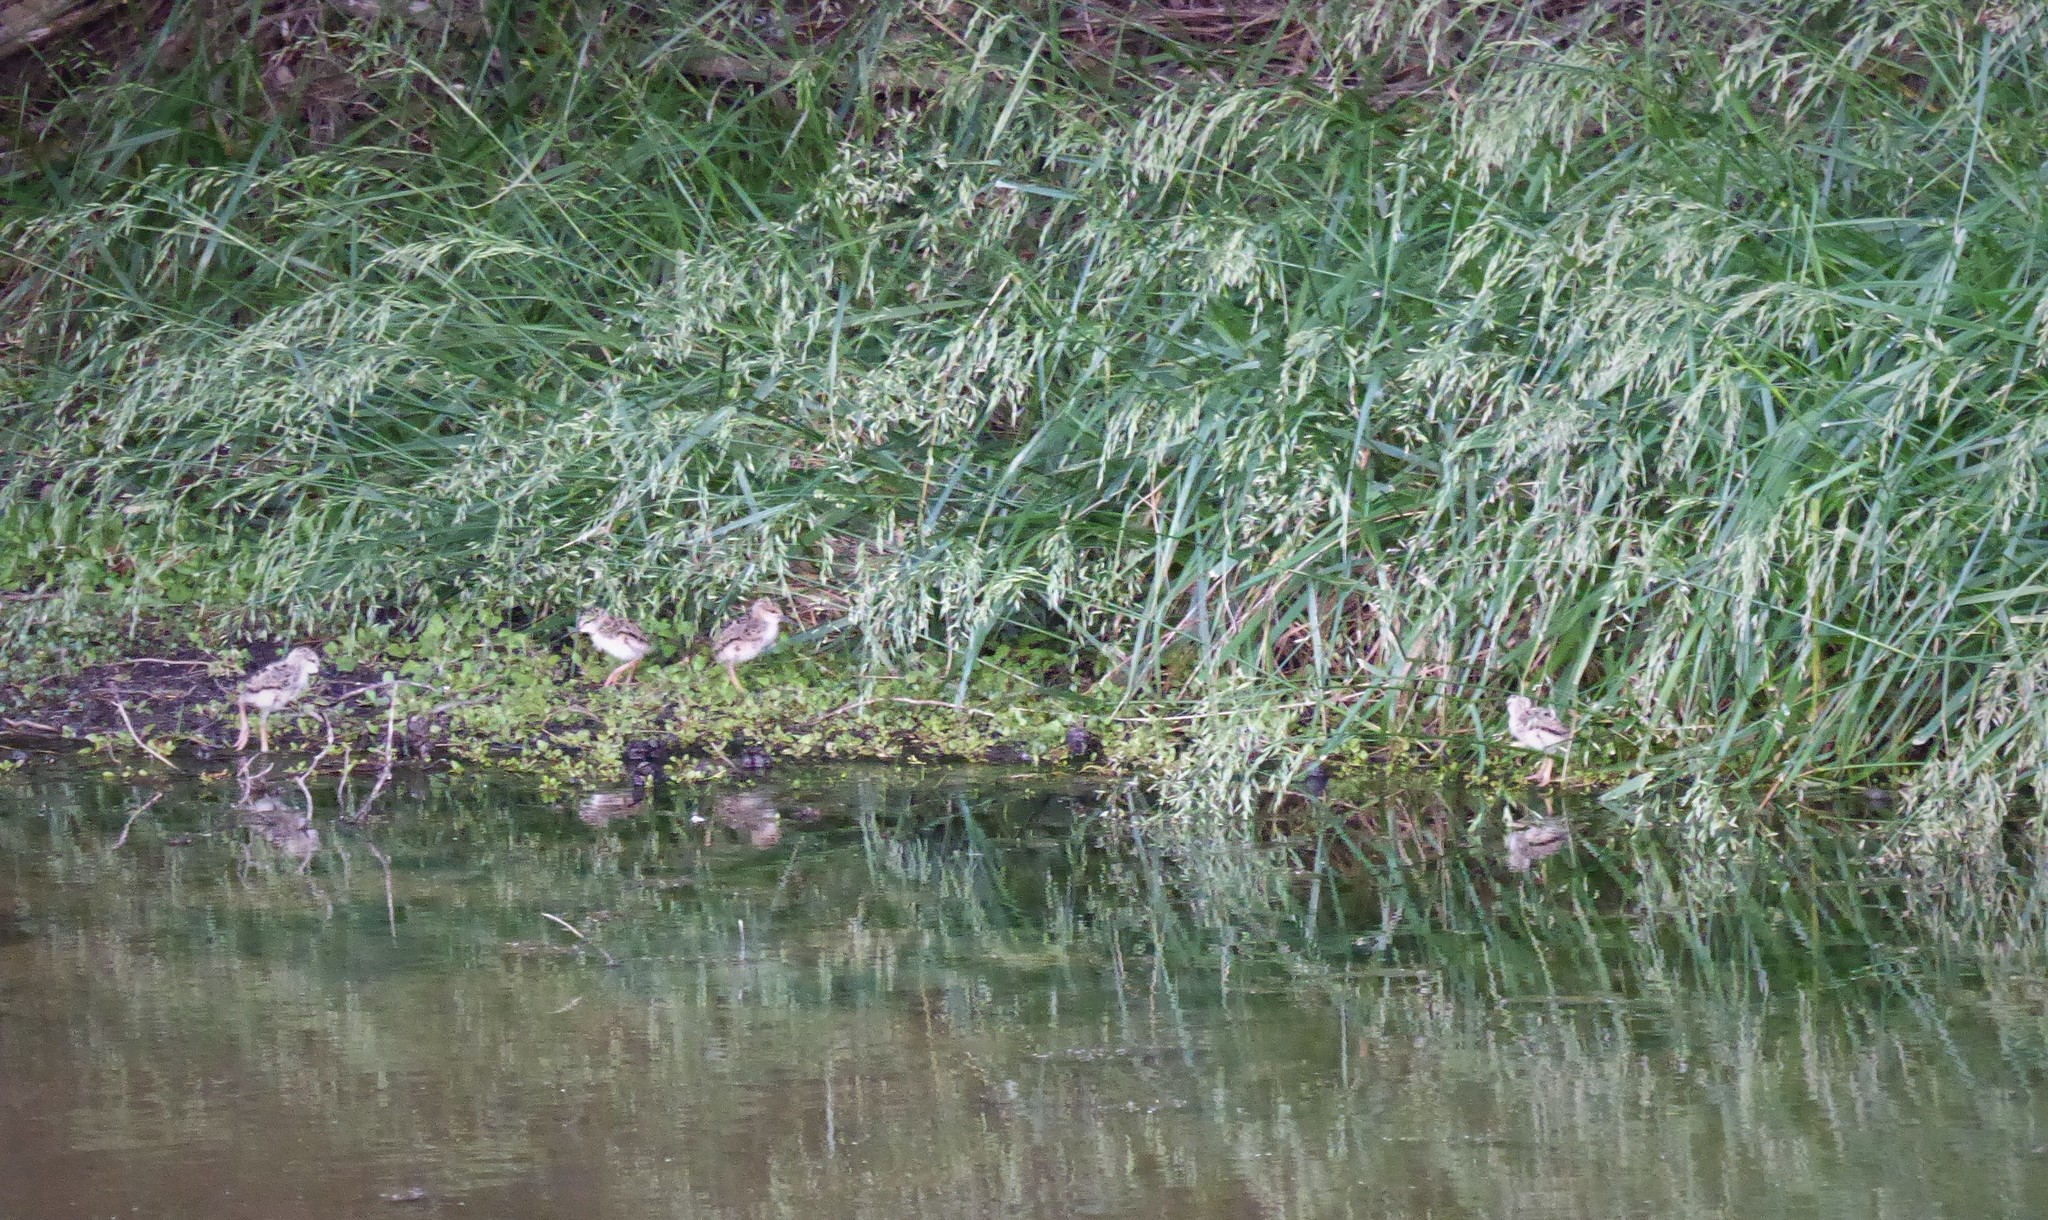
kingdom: Animalia
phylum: Chordata
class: Aves
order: Charadriiformes
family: Recurvirostridae
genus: Himantopus
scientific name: Himantopus leucocephalus
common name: White-headed stilt
